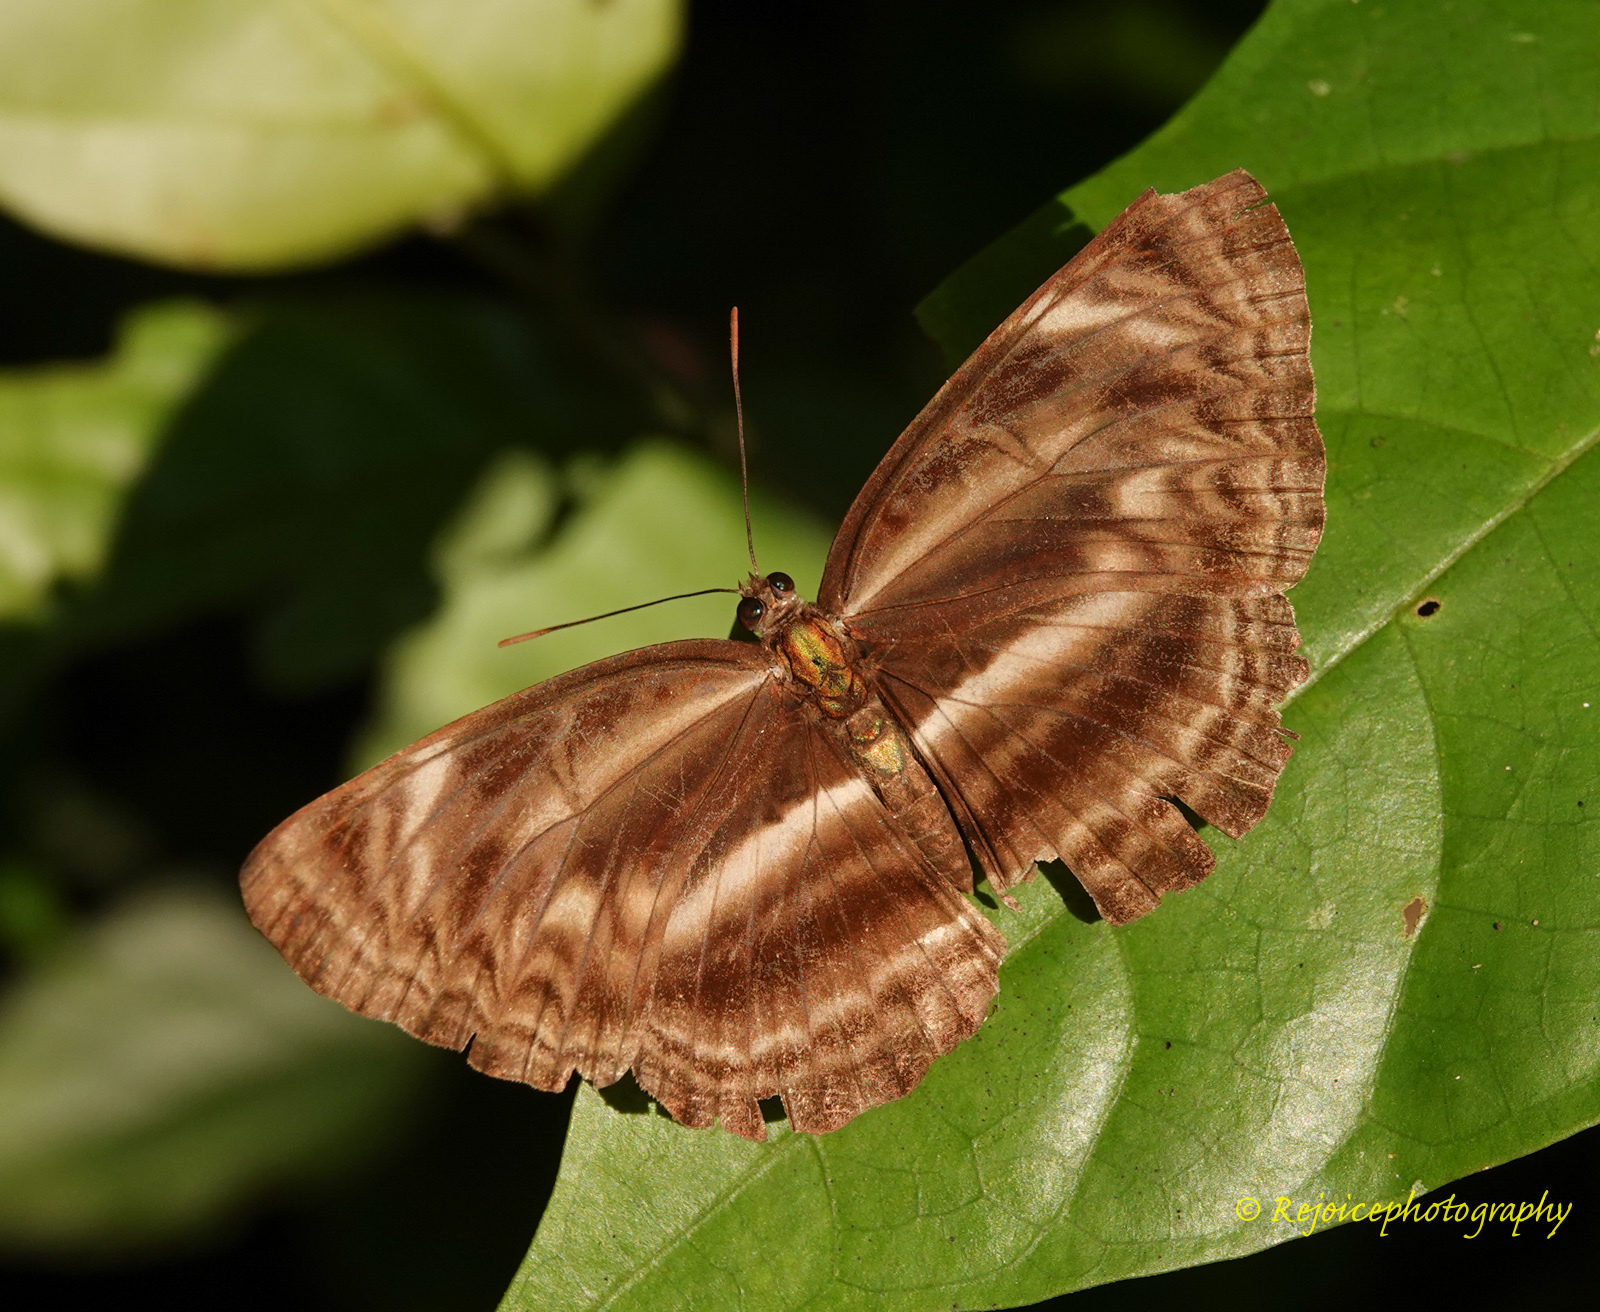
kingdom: Animalia
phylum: Arthropoda
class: Insecta
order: Lepidoptera
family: Nymphalidae
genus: Neptis
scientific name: Neptis harita
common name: Chocolate sailer
